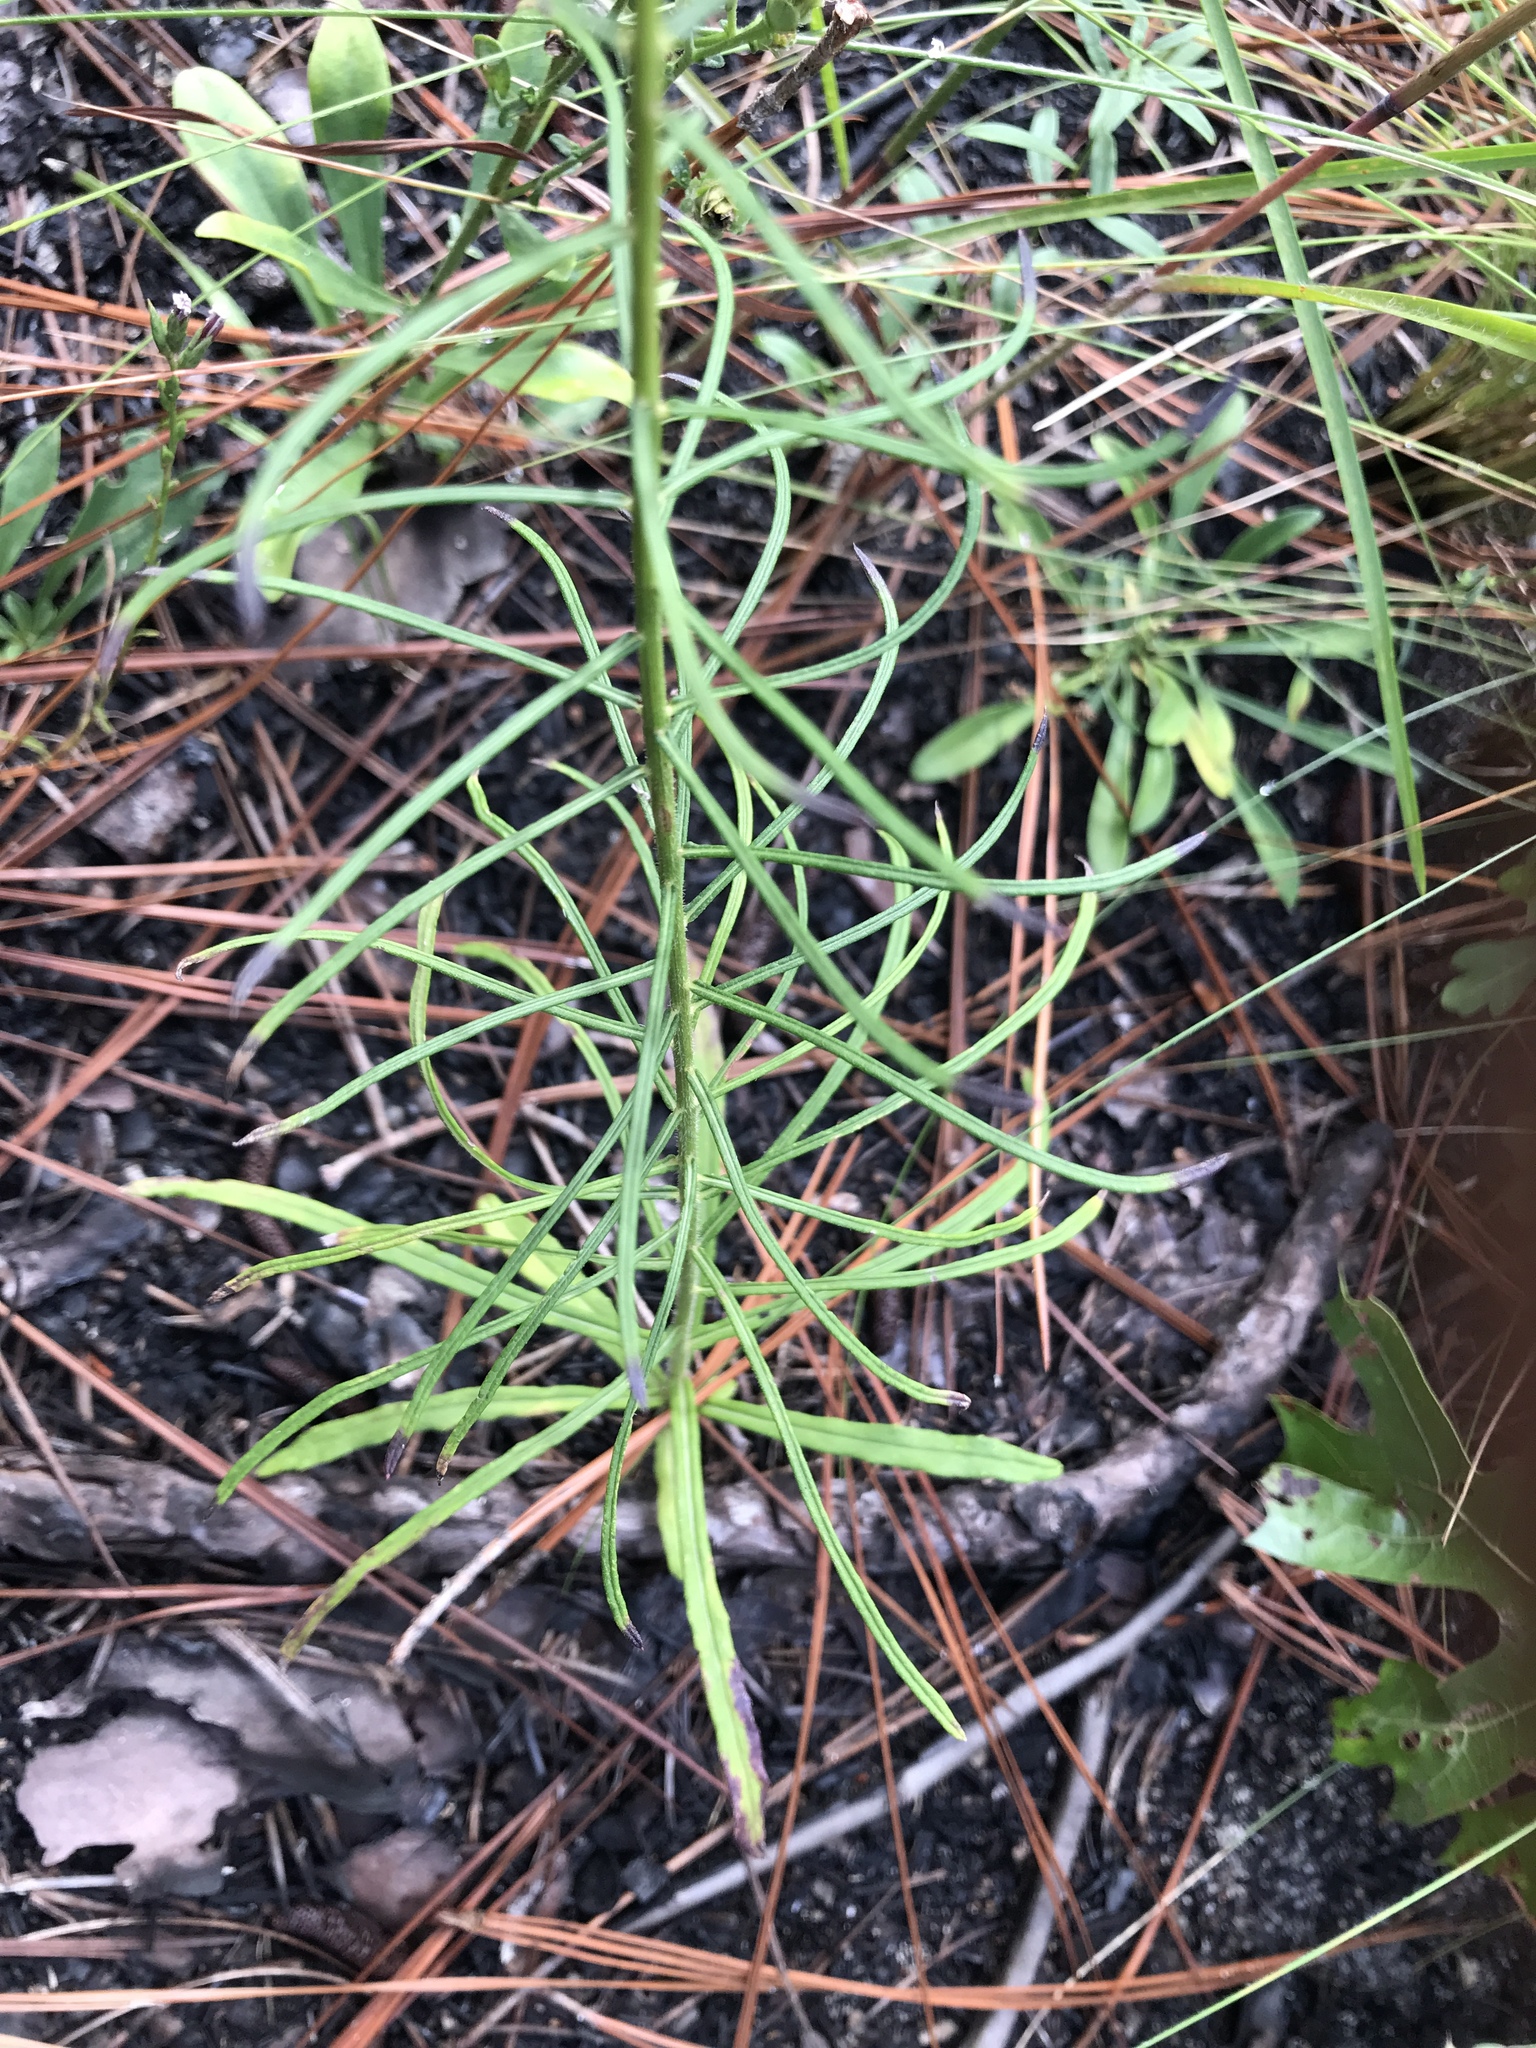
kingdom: Plantae
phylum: Tracheophyta
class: Magnoliopsida
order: Asterales
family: Asteraceae
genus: Vernonia
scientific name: Vernonia angustifolia
